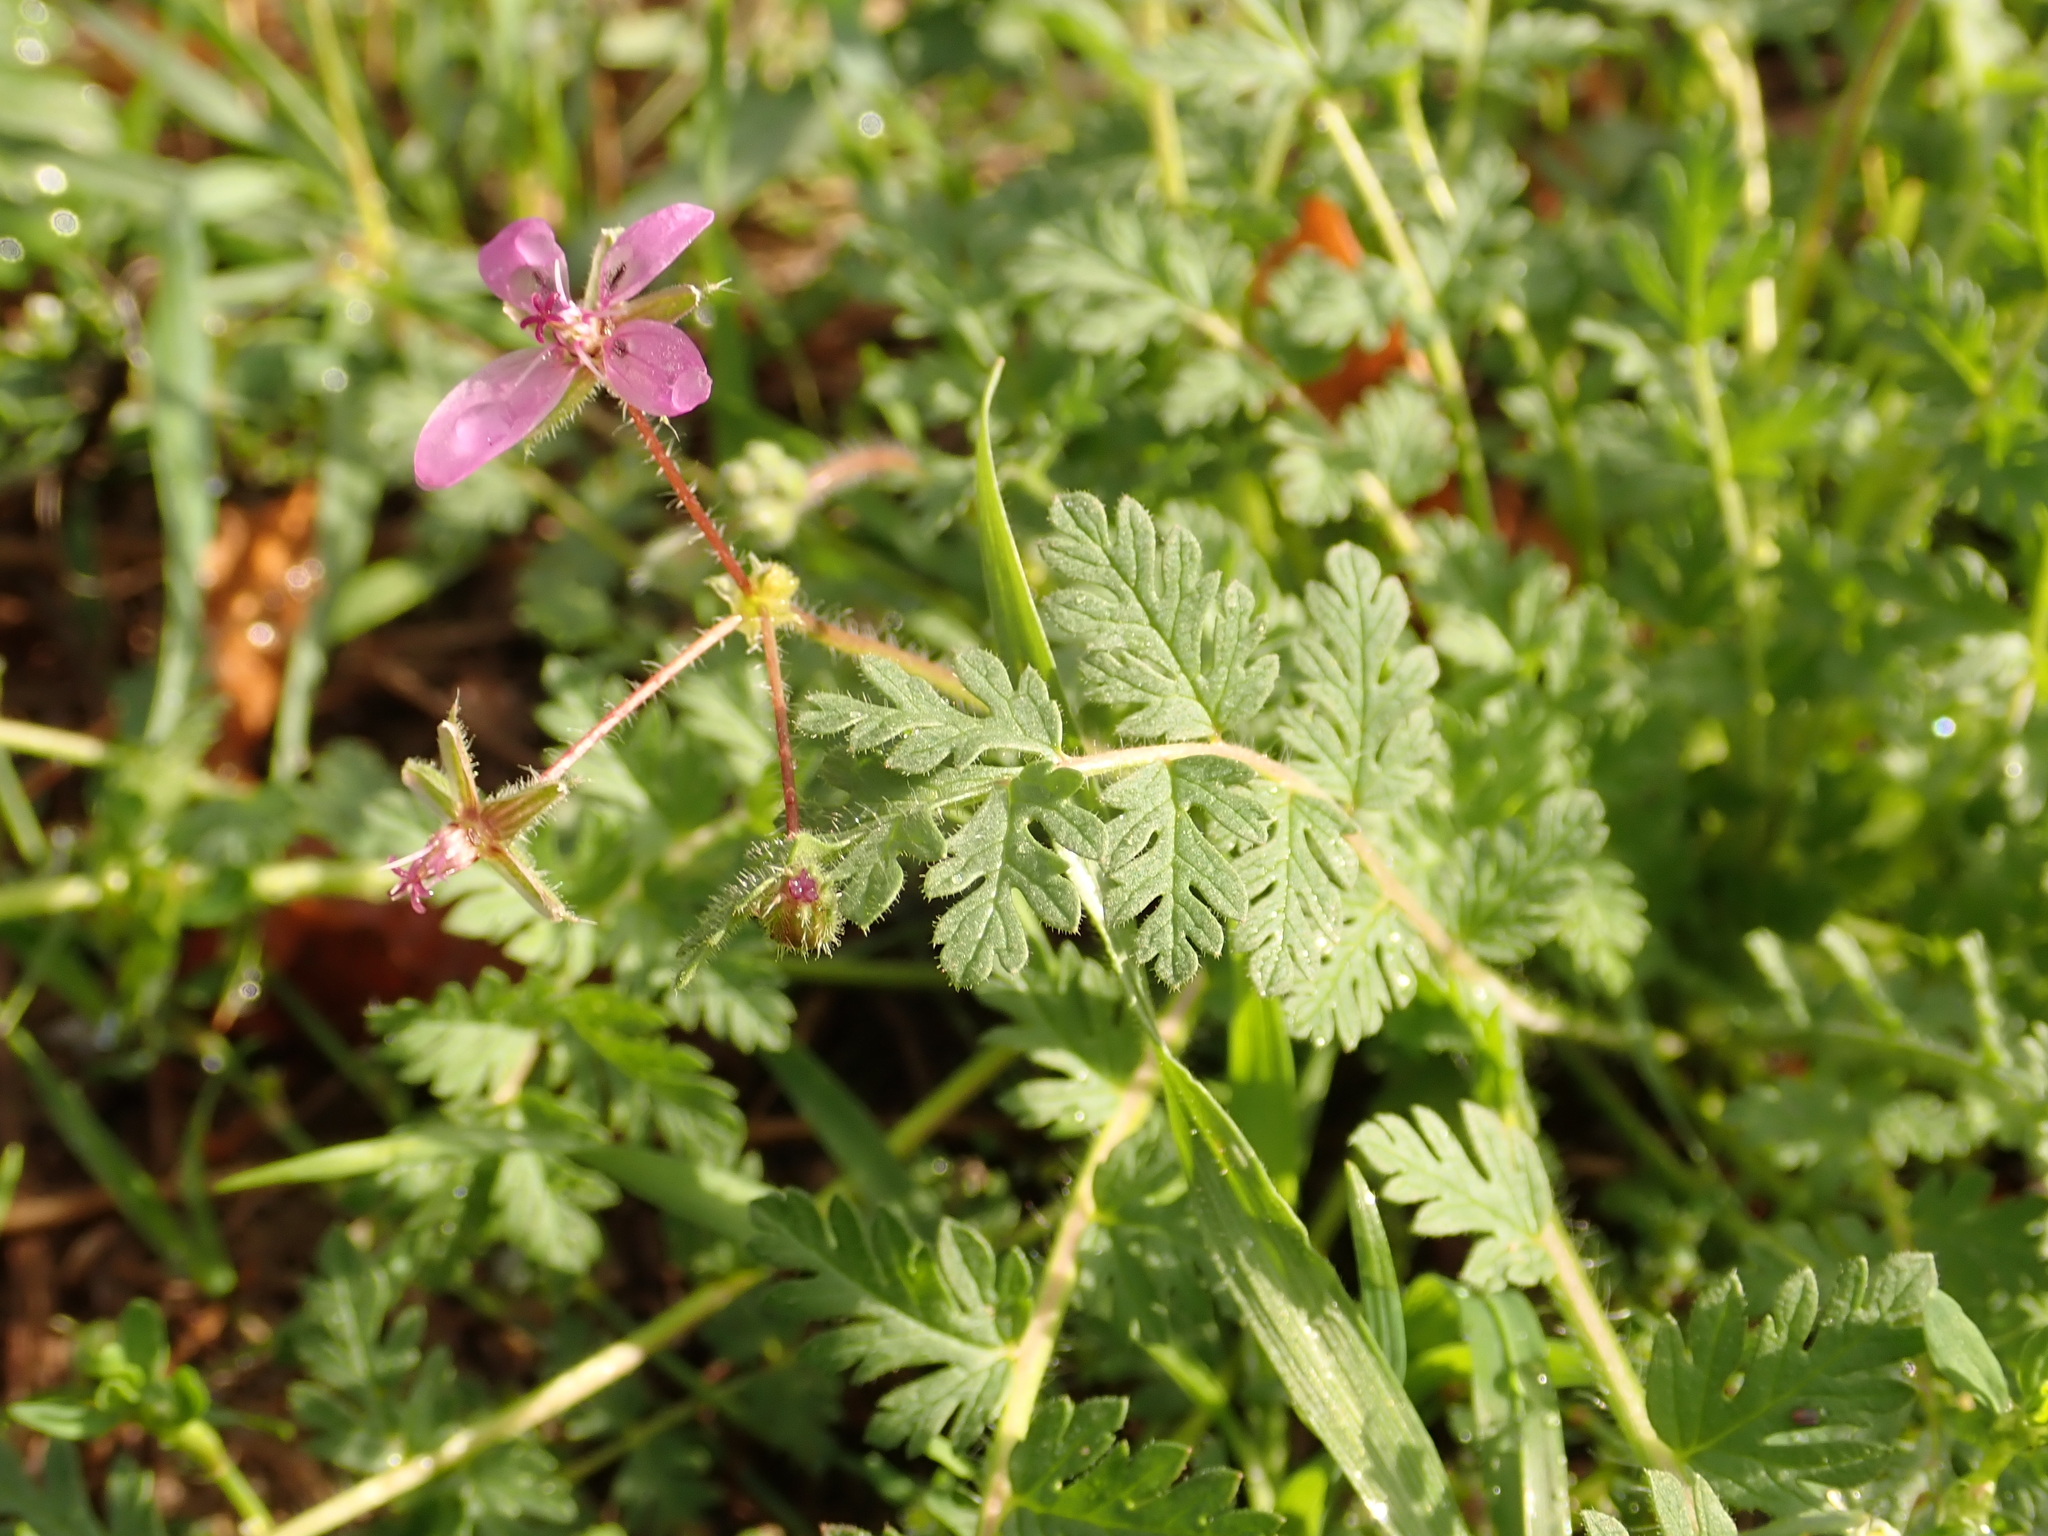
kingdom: Plantae
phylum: Tracheophyta
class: Magnoliopsida
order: Geraniales
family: Geraniaceae
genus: Erodium
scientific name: Erodium cicutarium
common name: Common stork's-bill
